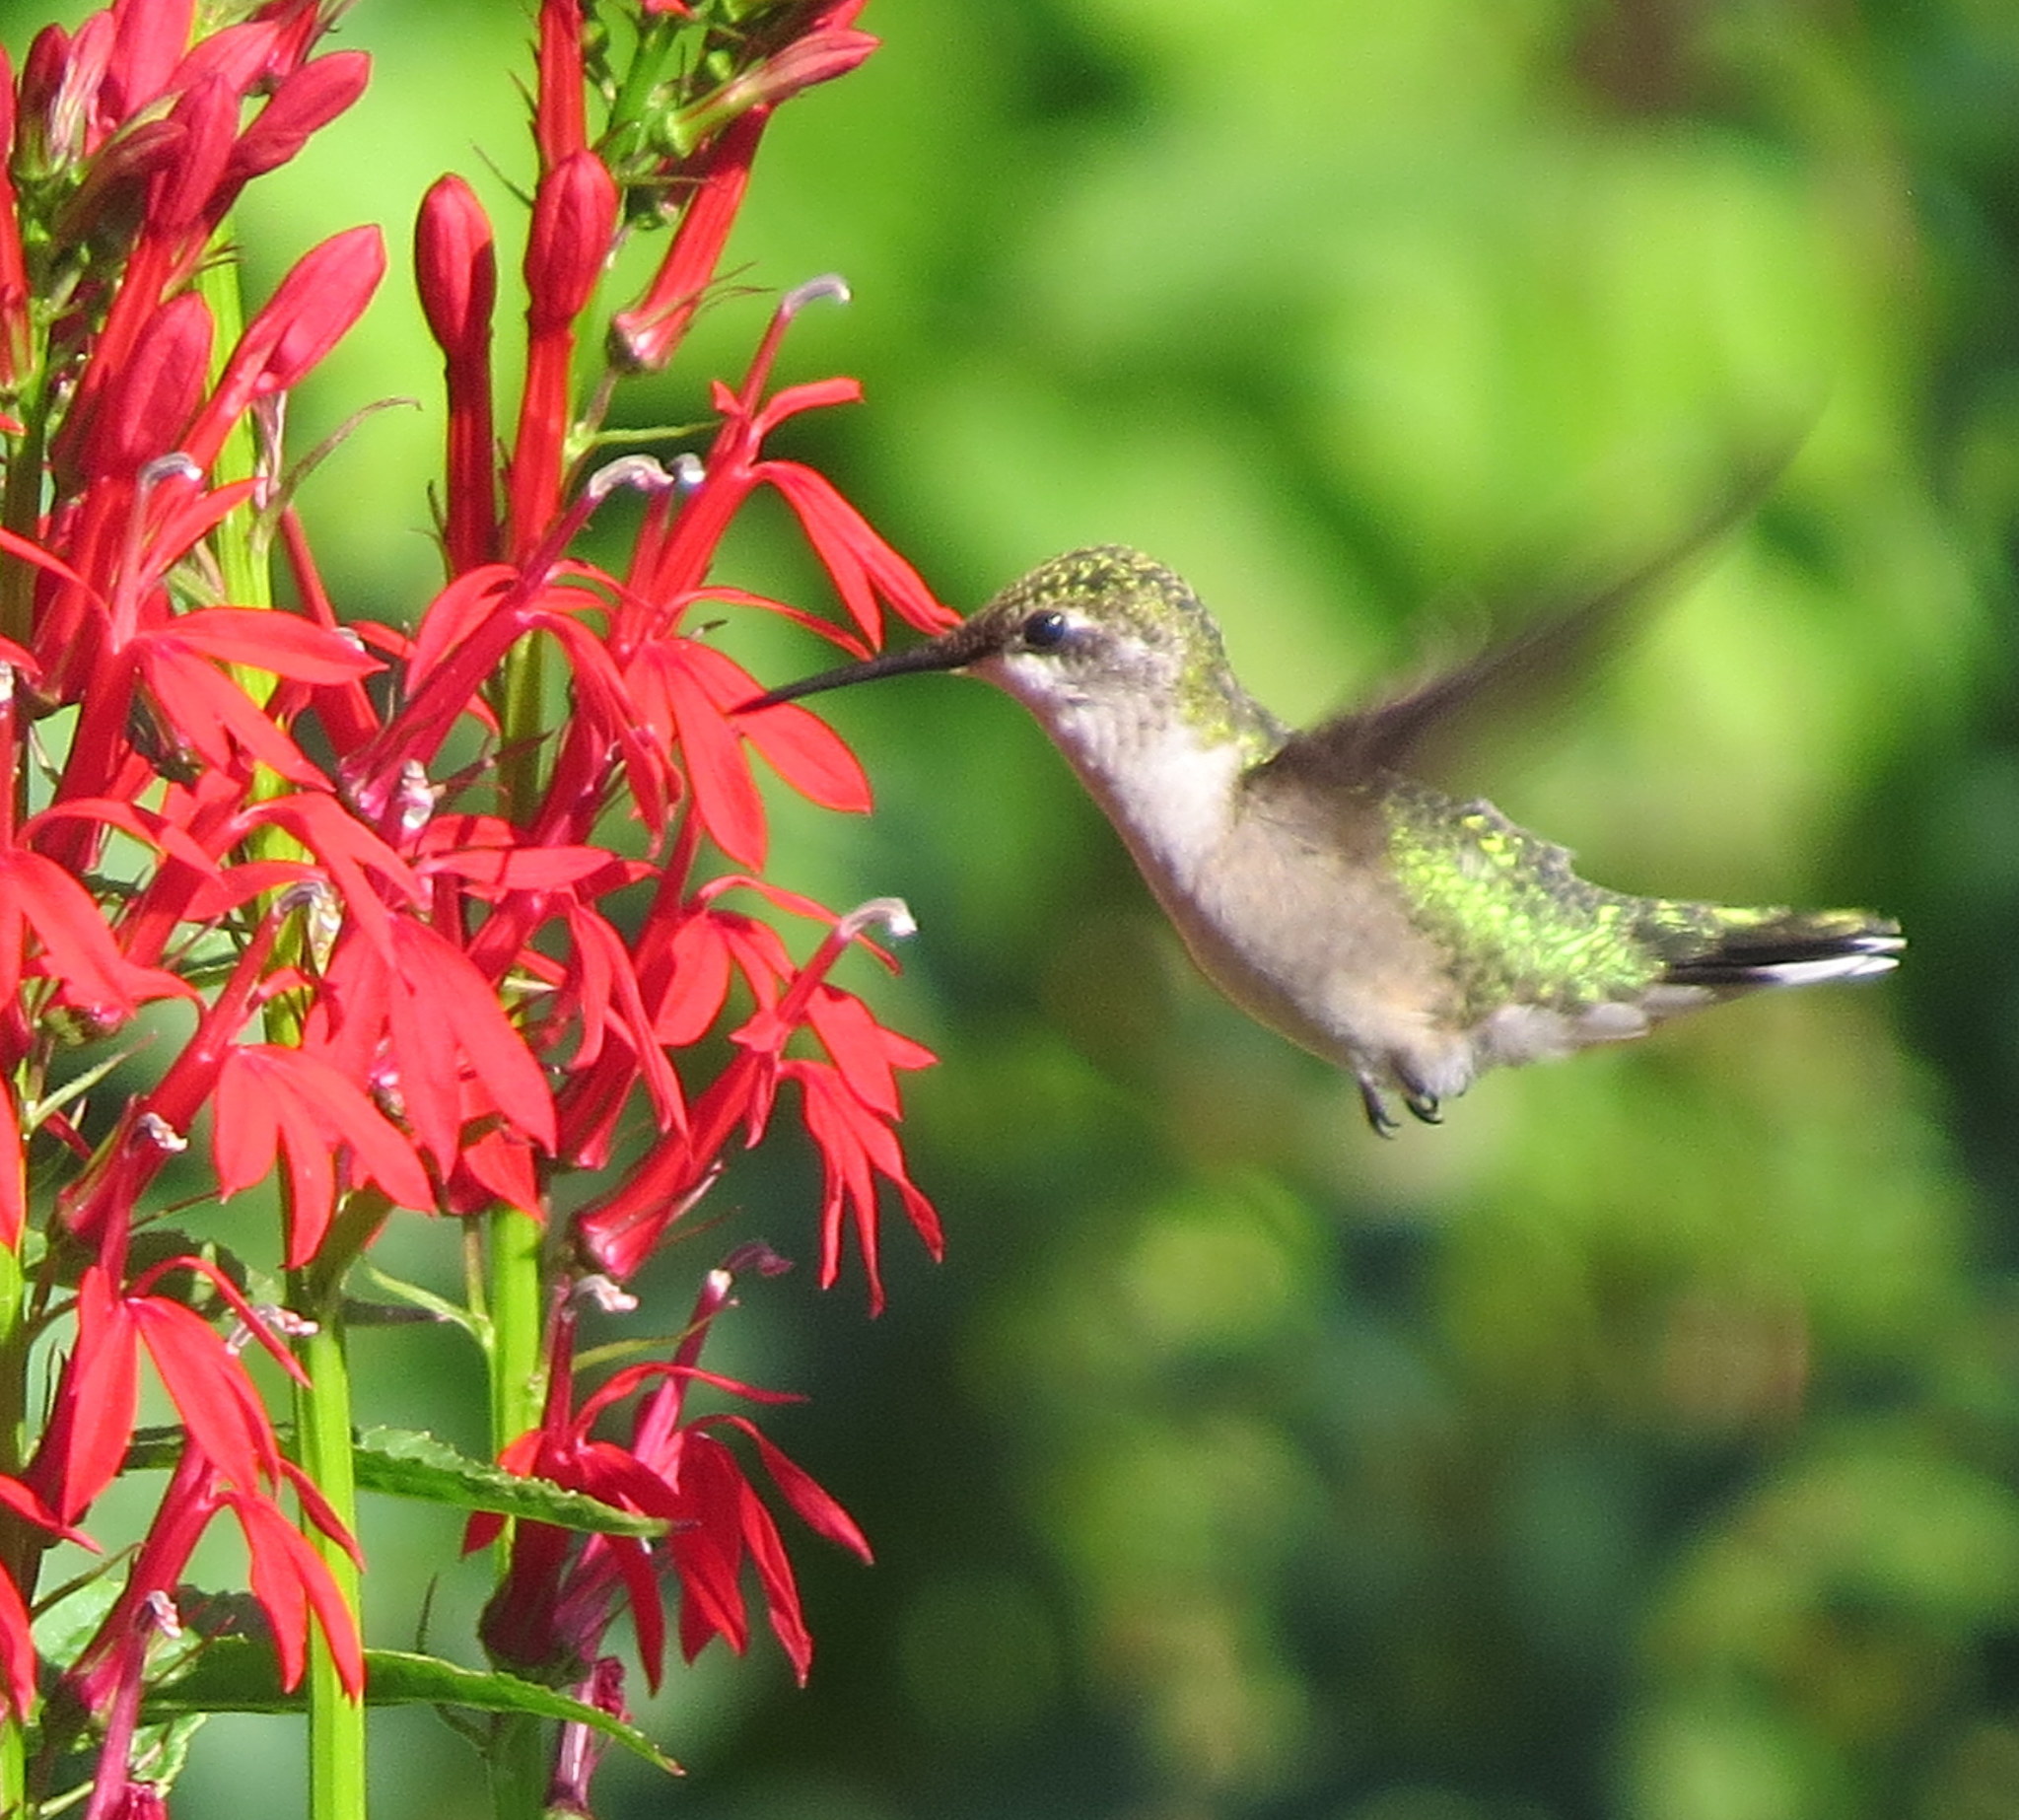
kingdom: Animalia
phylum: Chordata
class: Aves
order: Apodiformes
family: Trochilidae
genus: Archilochus
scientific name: Archilochus colubris
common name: Ruby-throated hummingbird
